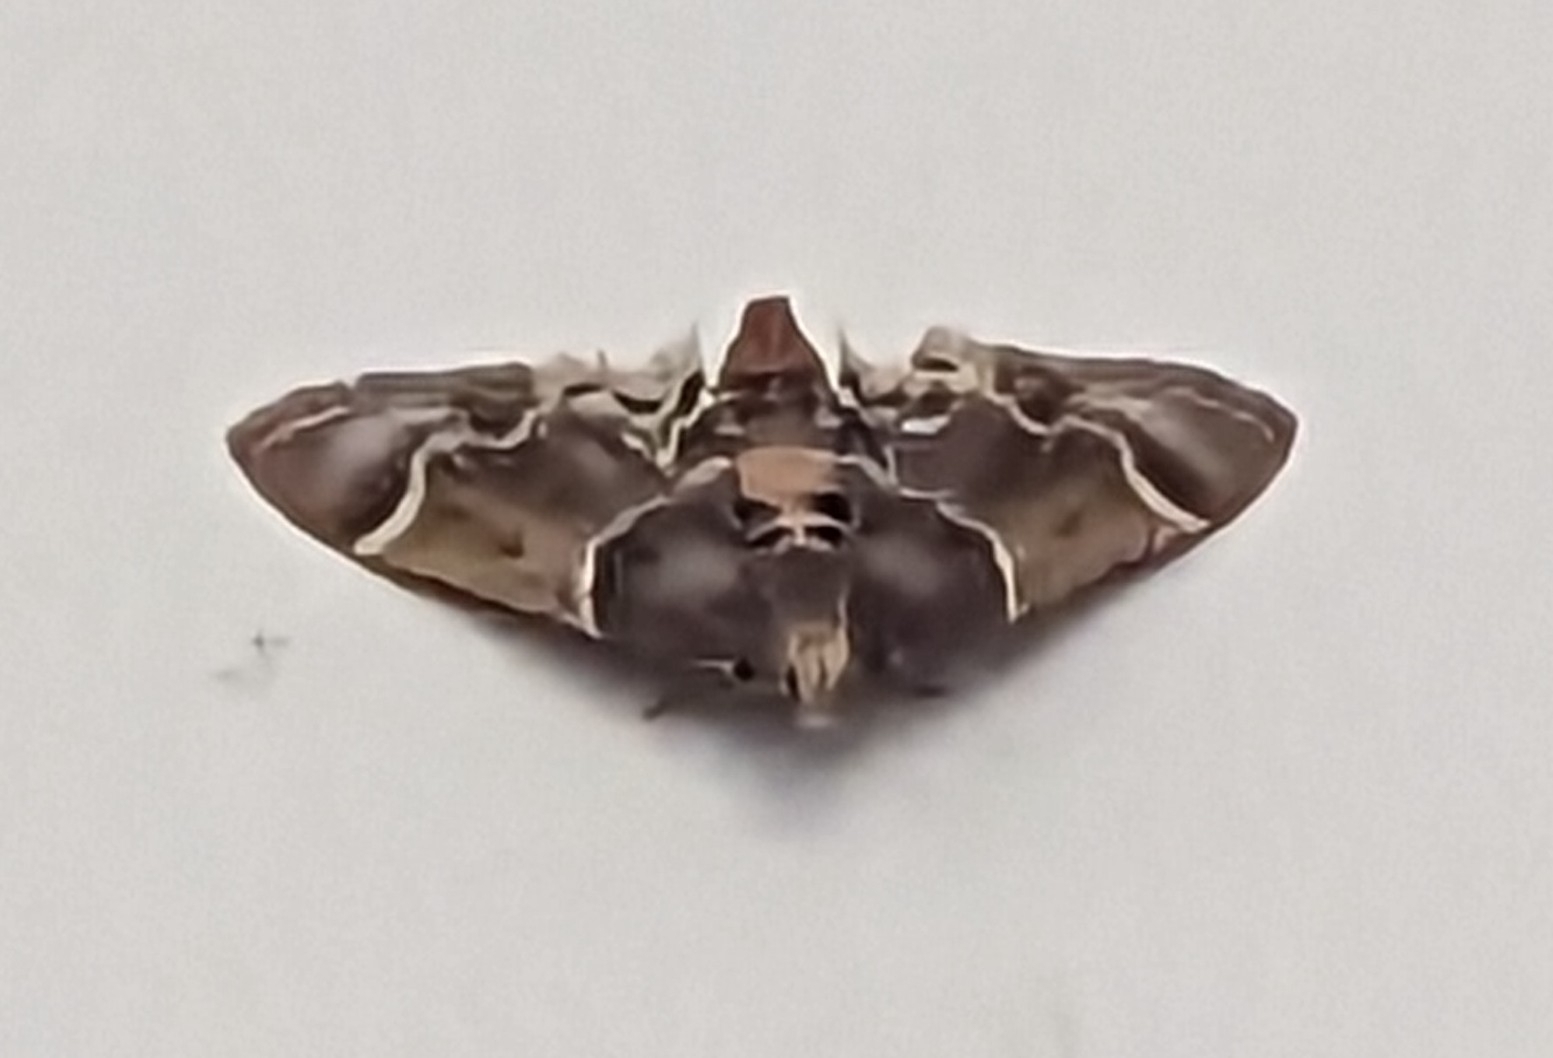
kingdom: Animalia
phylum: Arthropoda
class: Insecta
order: Lepidoptera
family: Pyralidae
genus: Pyralis
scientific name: Pyralis farinalis
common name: Meal moth
